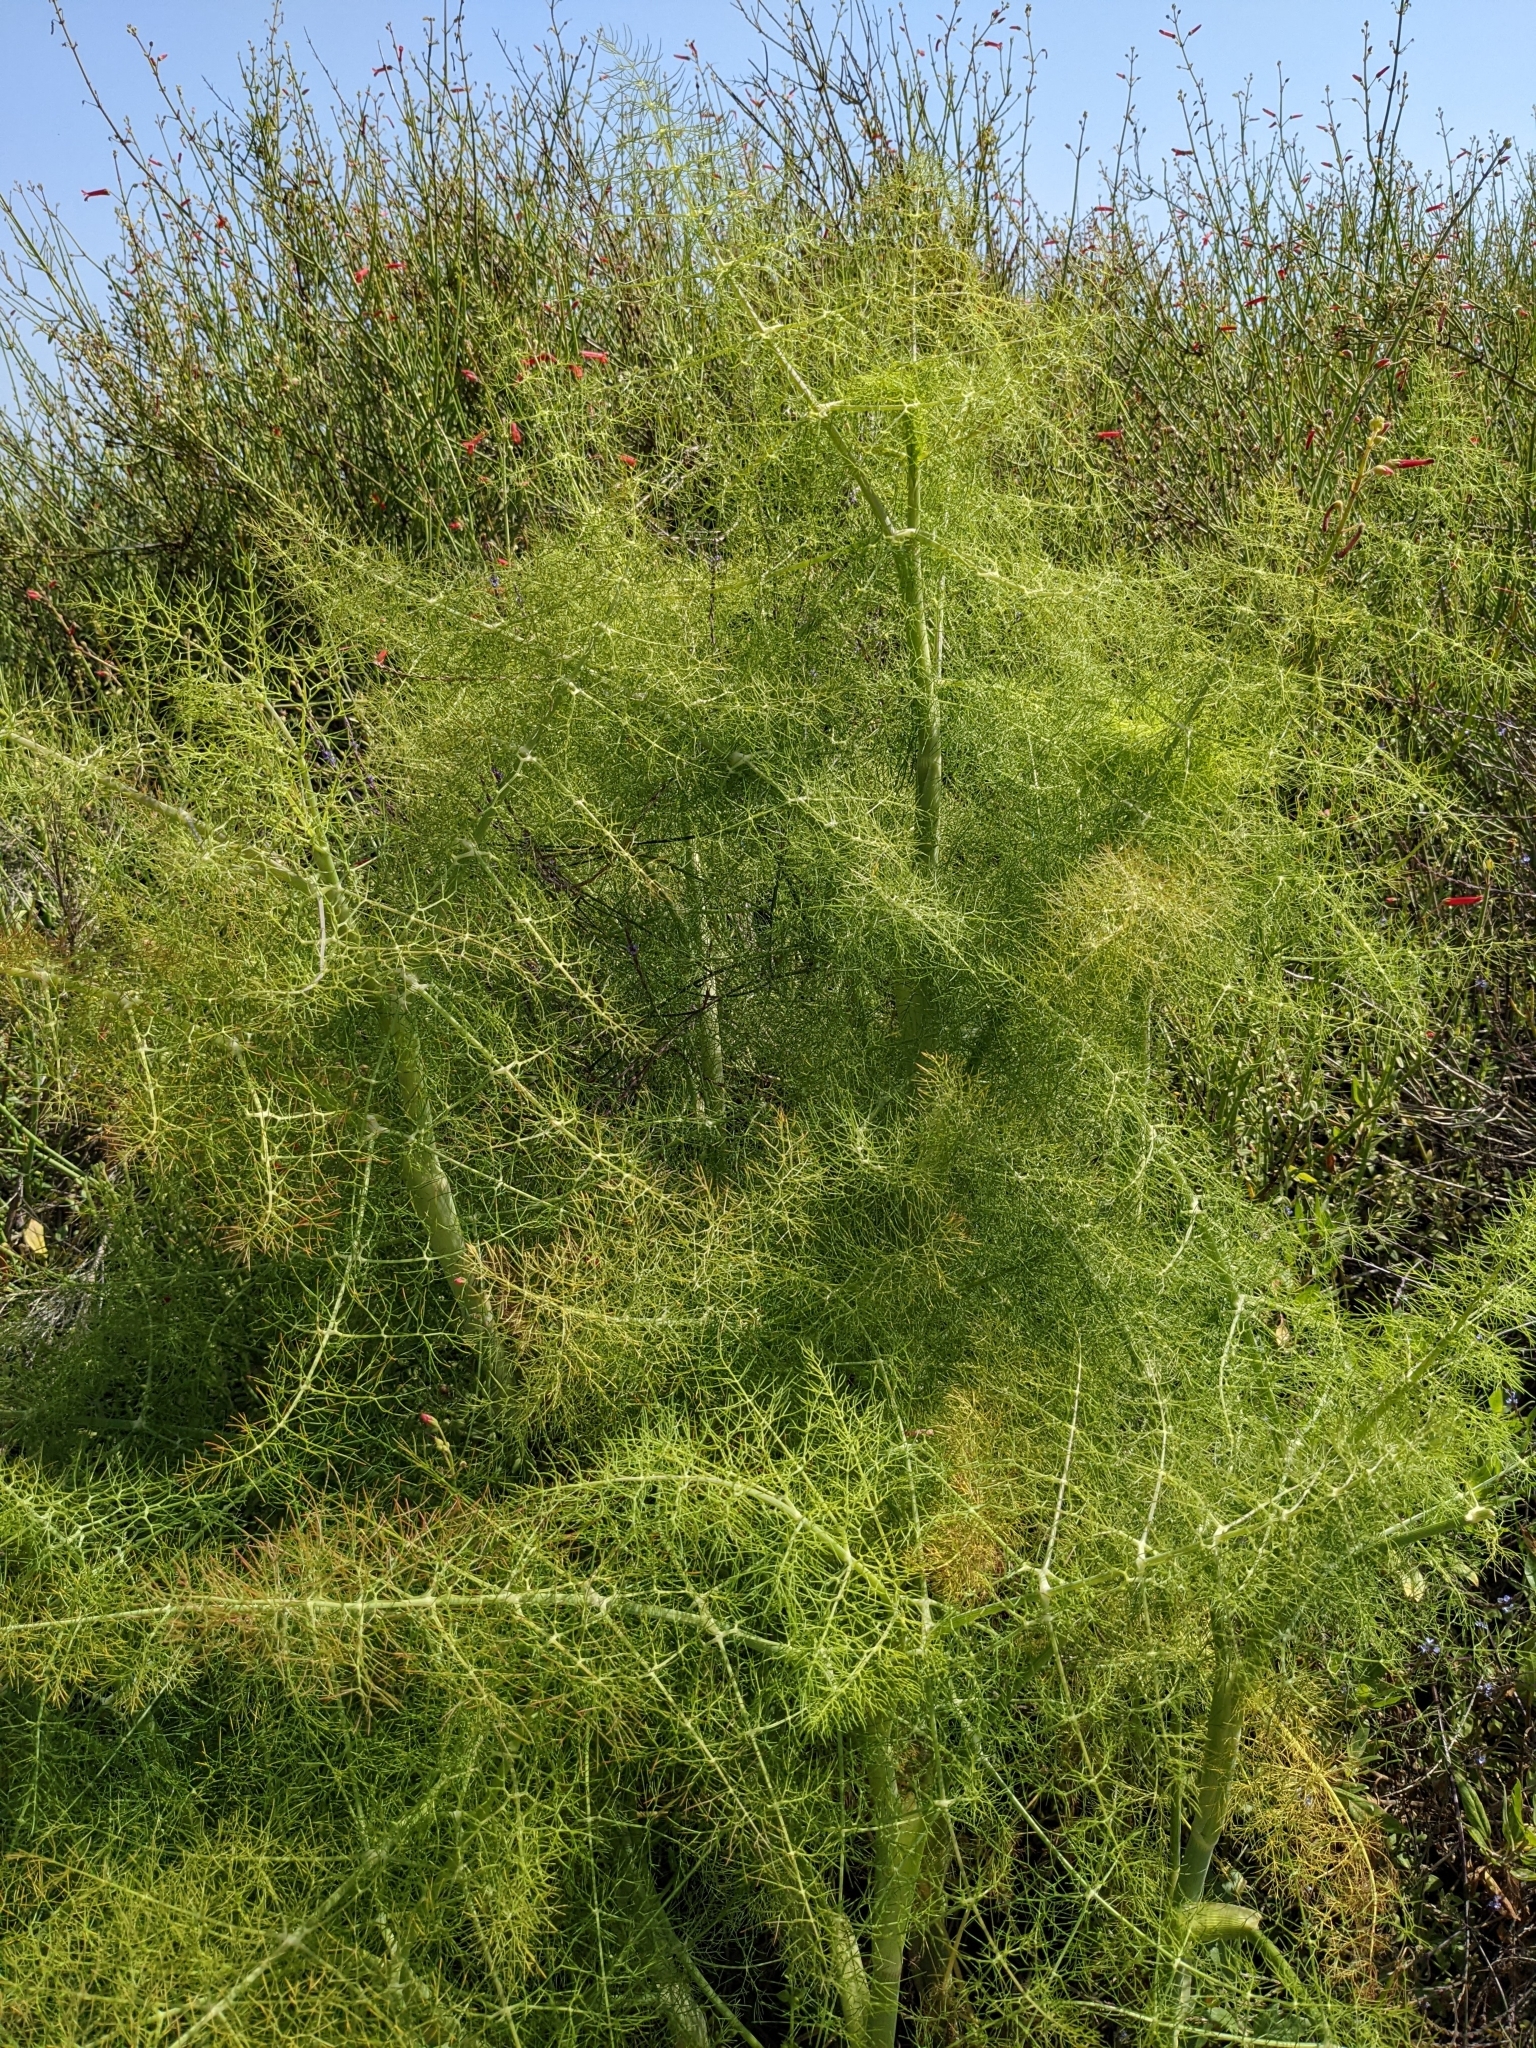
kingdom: Plantae
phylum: Tracheophyta
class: Magnoliopsida
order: Apiales
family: Apiaceae
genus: Foeniculum
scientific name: Foeniculum vulgare
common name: Fennel
